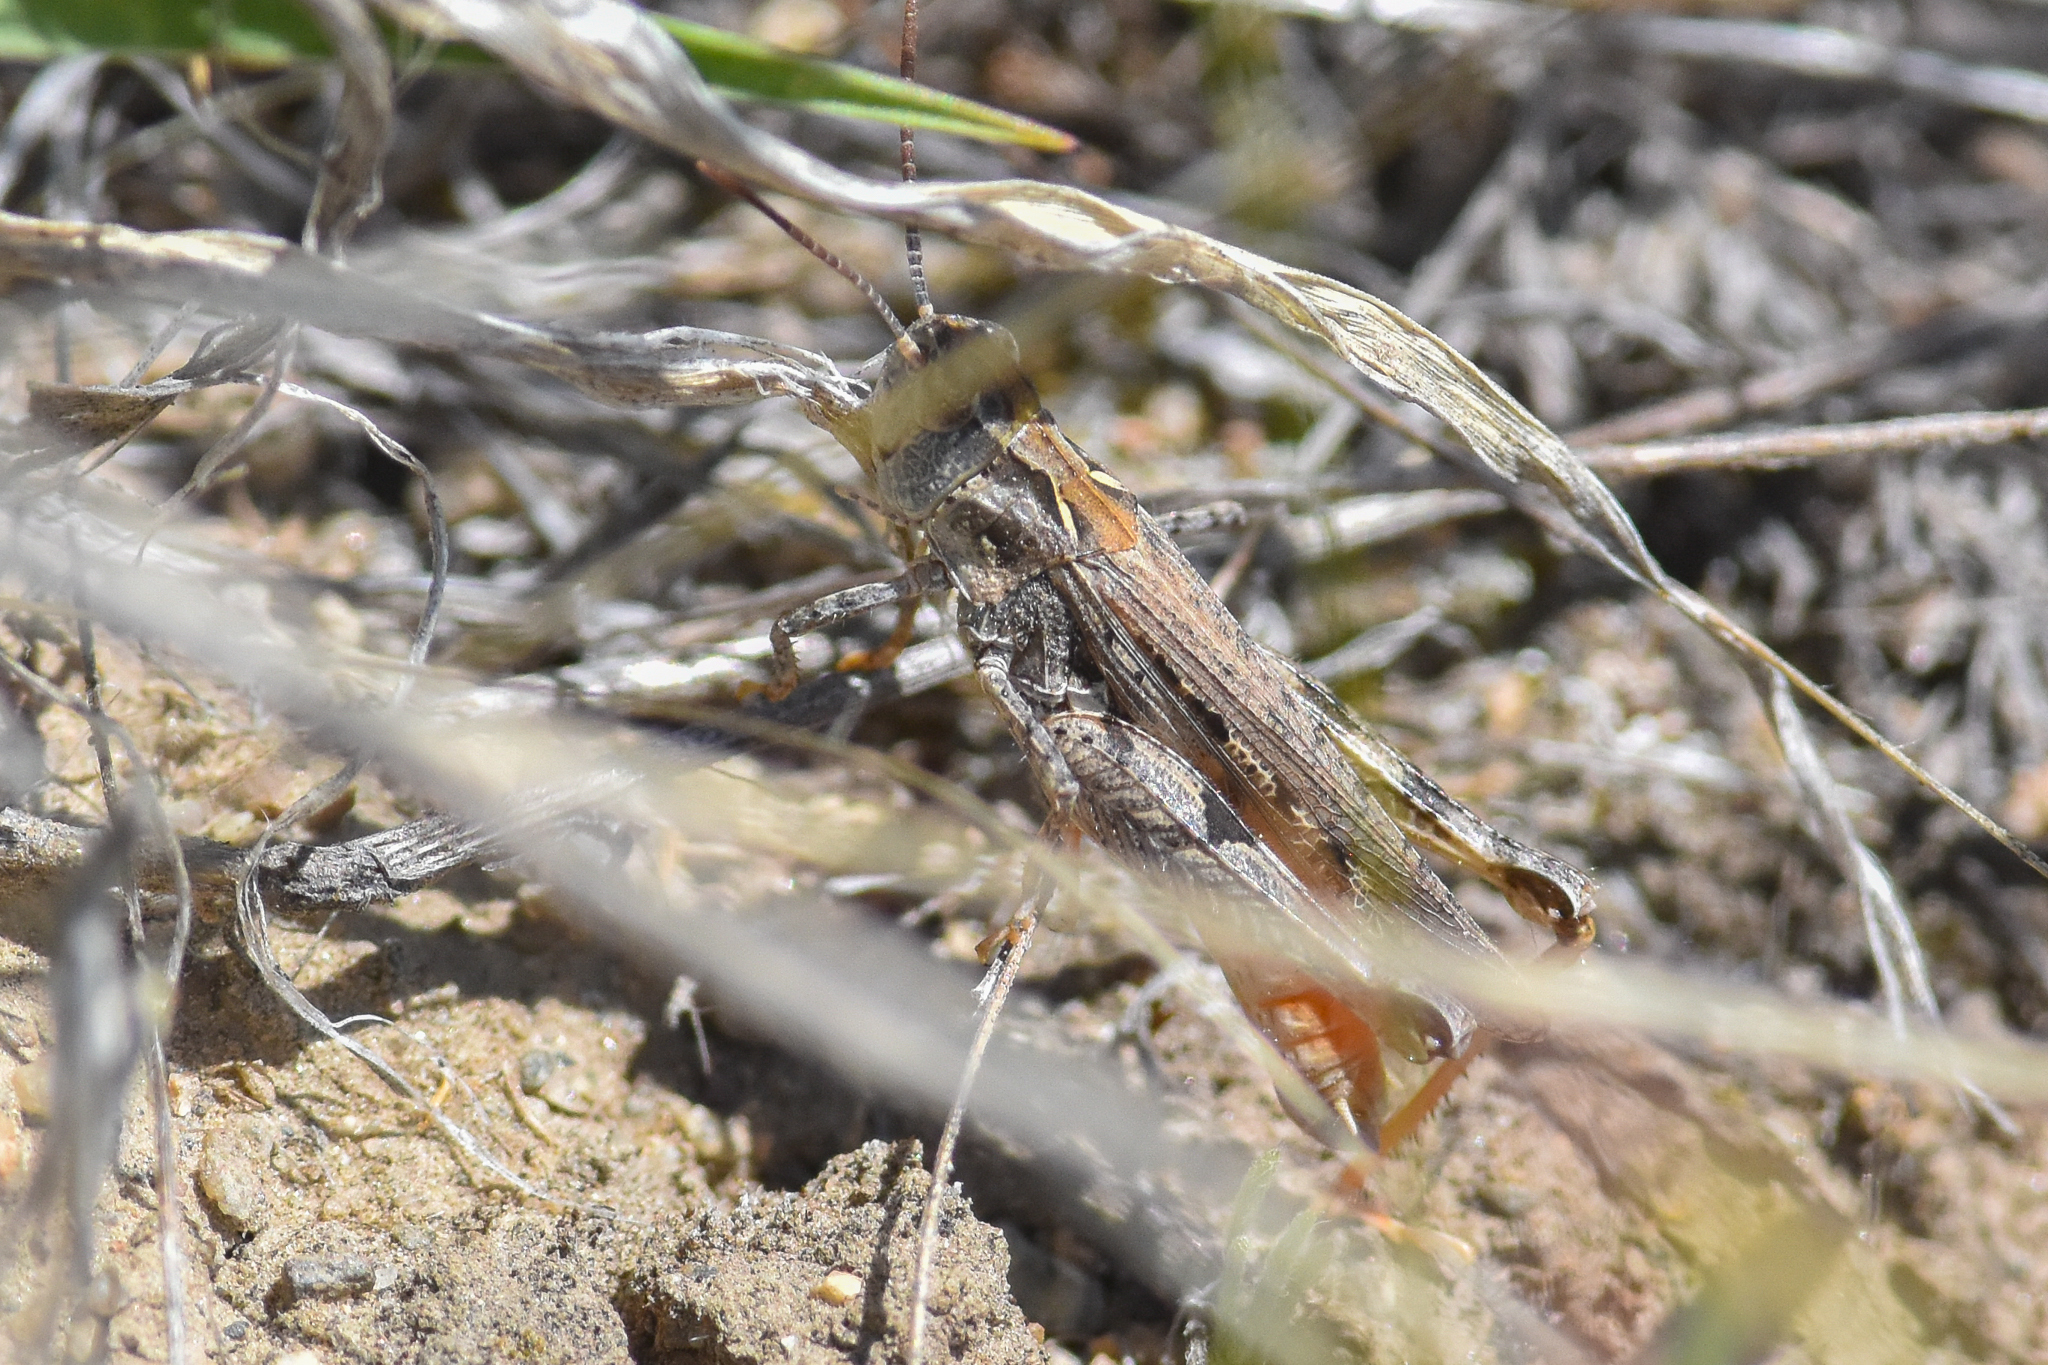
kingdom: Animalia
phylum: Arthropoda
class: Insecta
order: Orthoptera
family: Acrididae
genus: Psoloessa
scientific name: Psoloessa delicatula
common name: Brown-spotted range grasshopper
